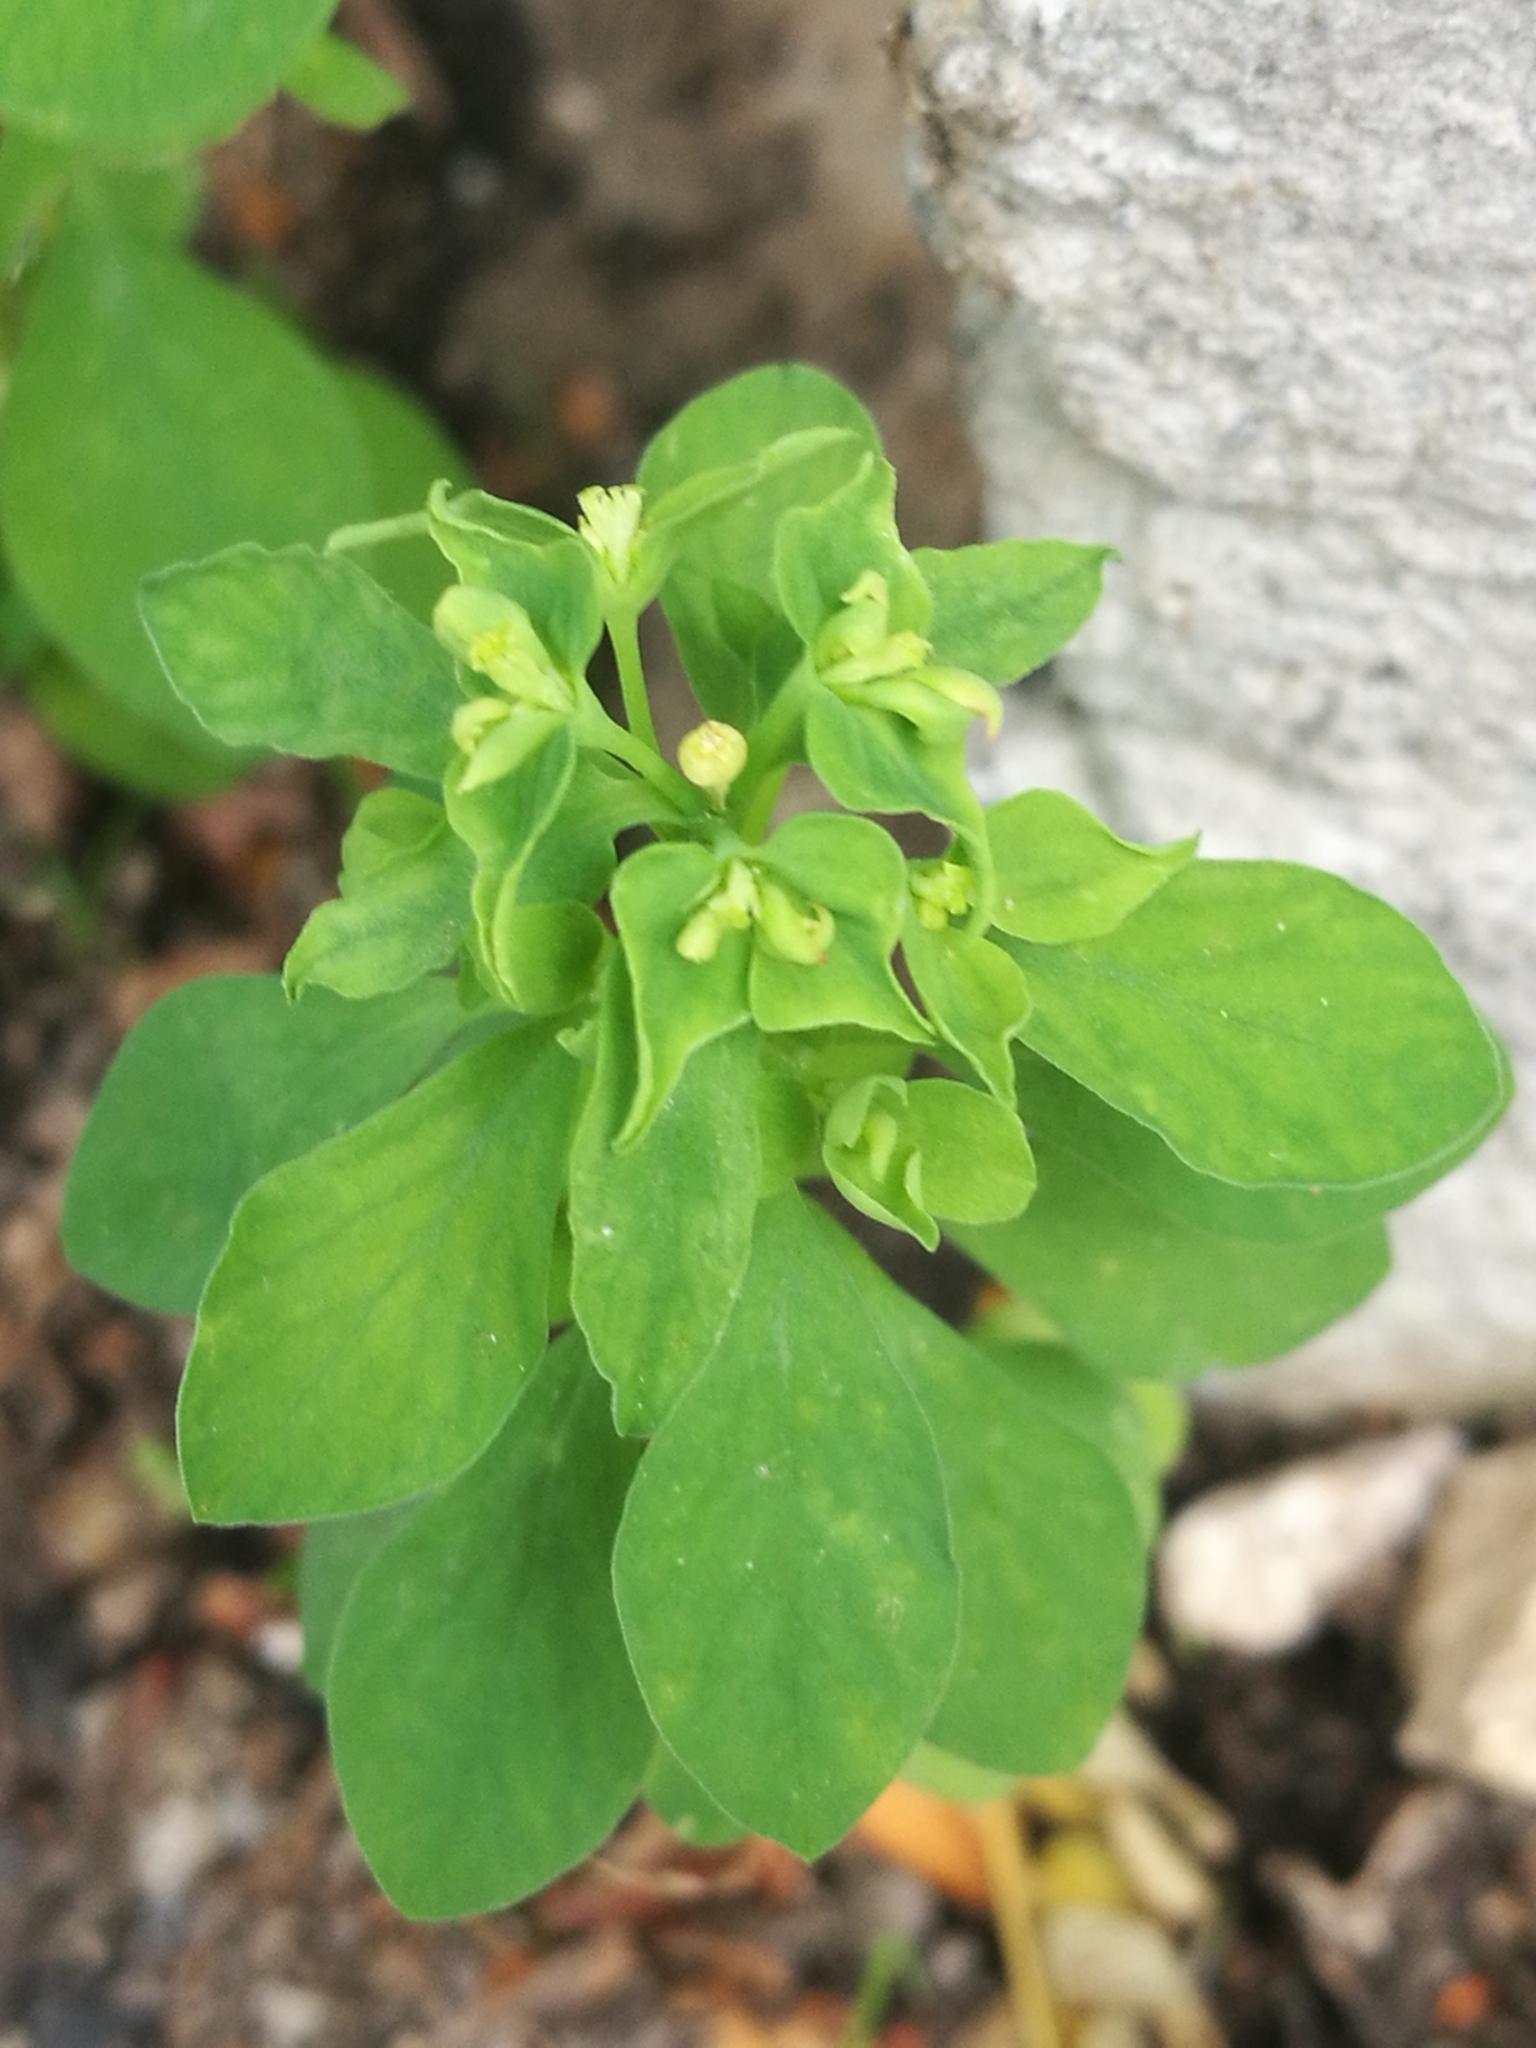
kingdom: Plantae
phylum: Tracheophyta
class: Magnoliopsida
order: Malpighiales
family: Euphorbiaceae
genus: Euphorbia
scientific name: Euphorbia peplus
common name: Petty spurge
